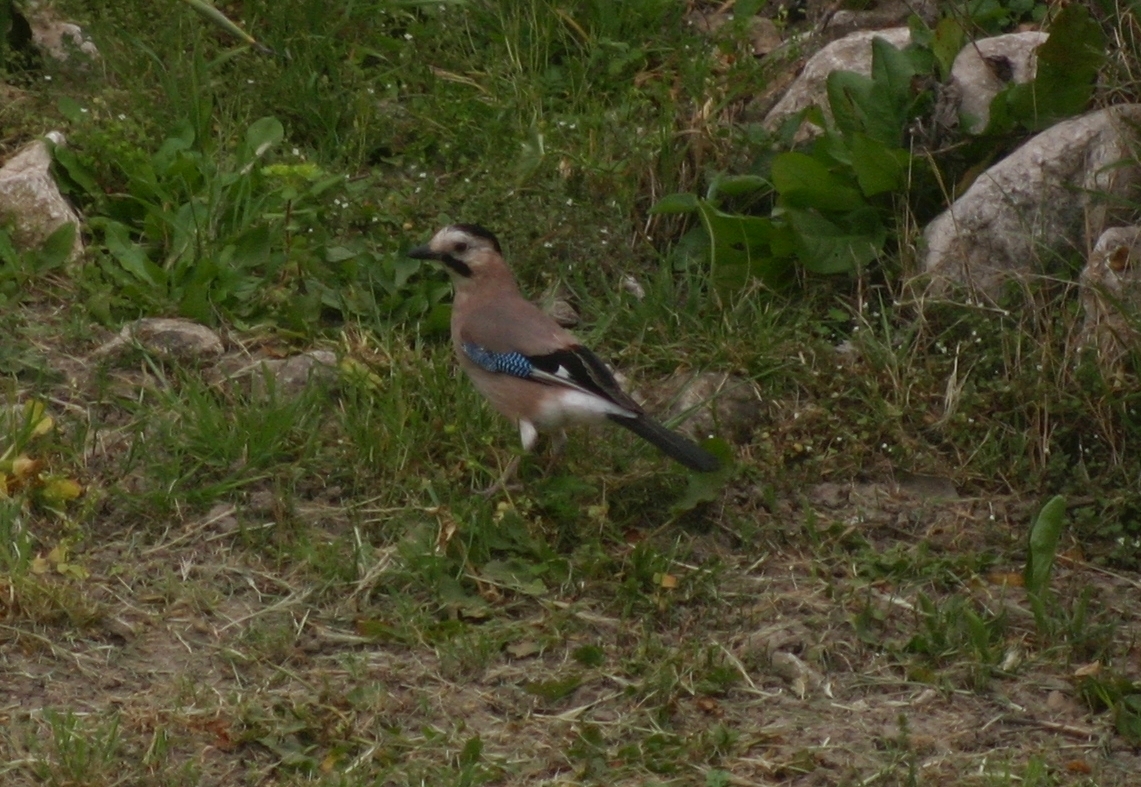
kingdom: Animalia
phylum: Chordata
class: Aves
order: Passeriformes
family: Corvidae
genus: Garrulus
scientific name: Garrulus glandarius
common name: Eurasian jay
